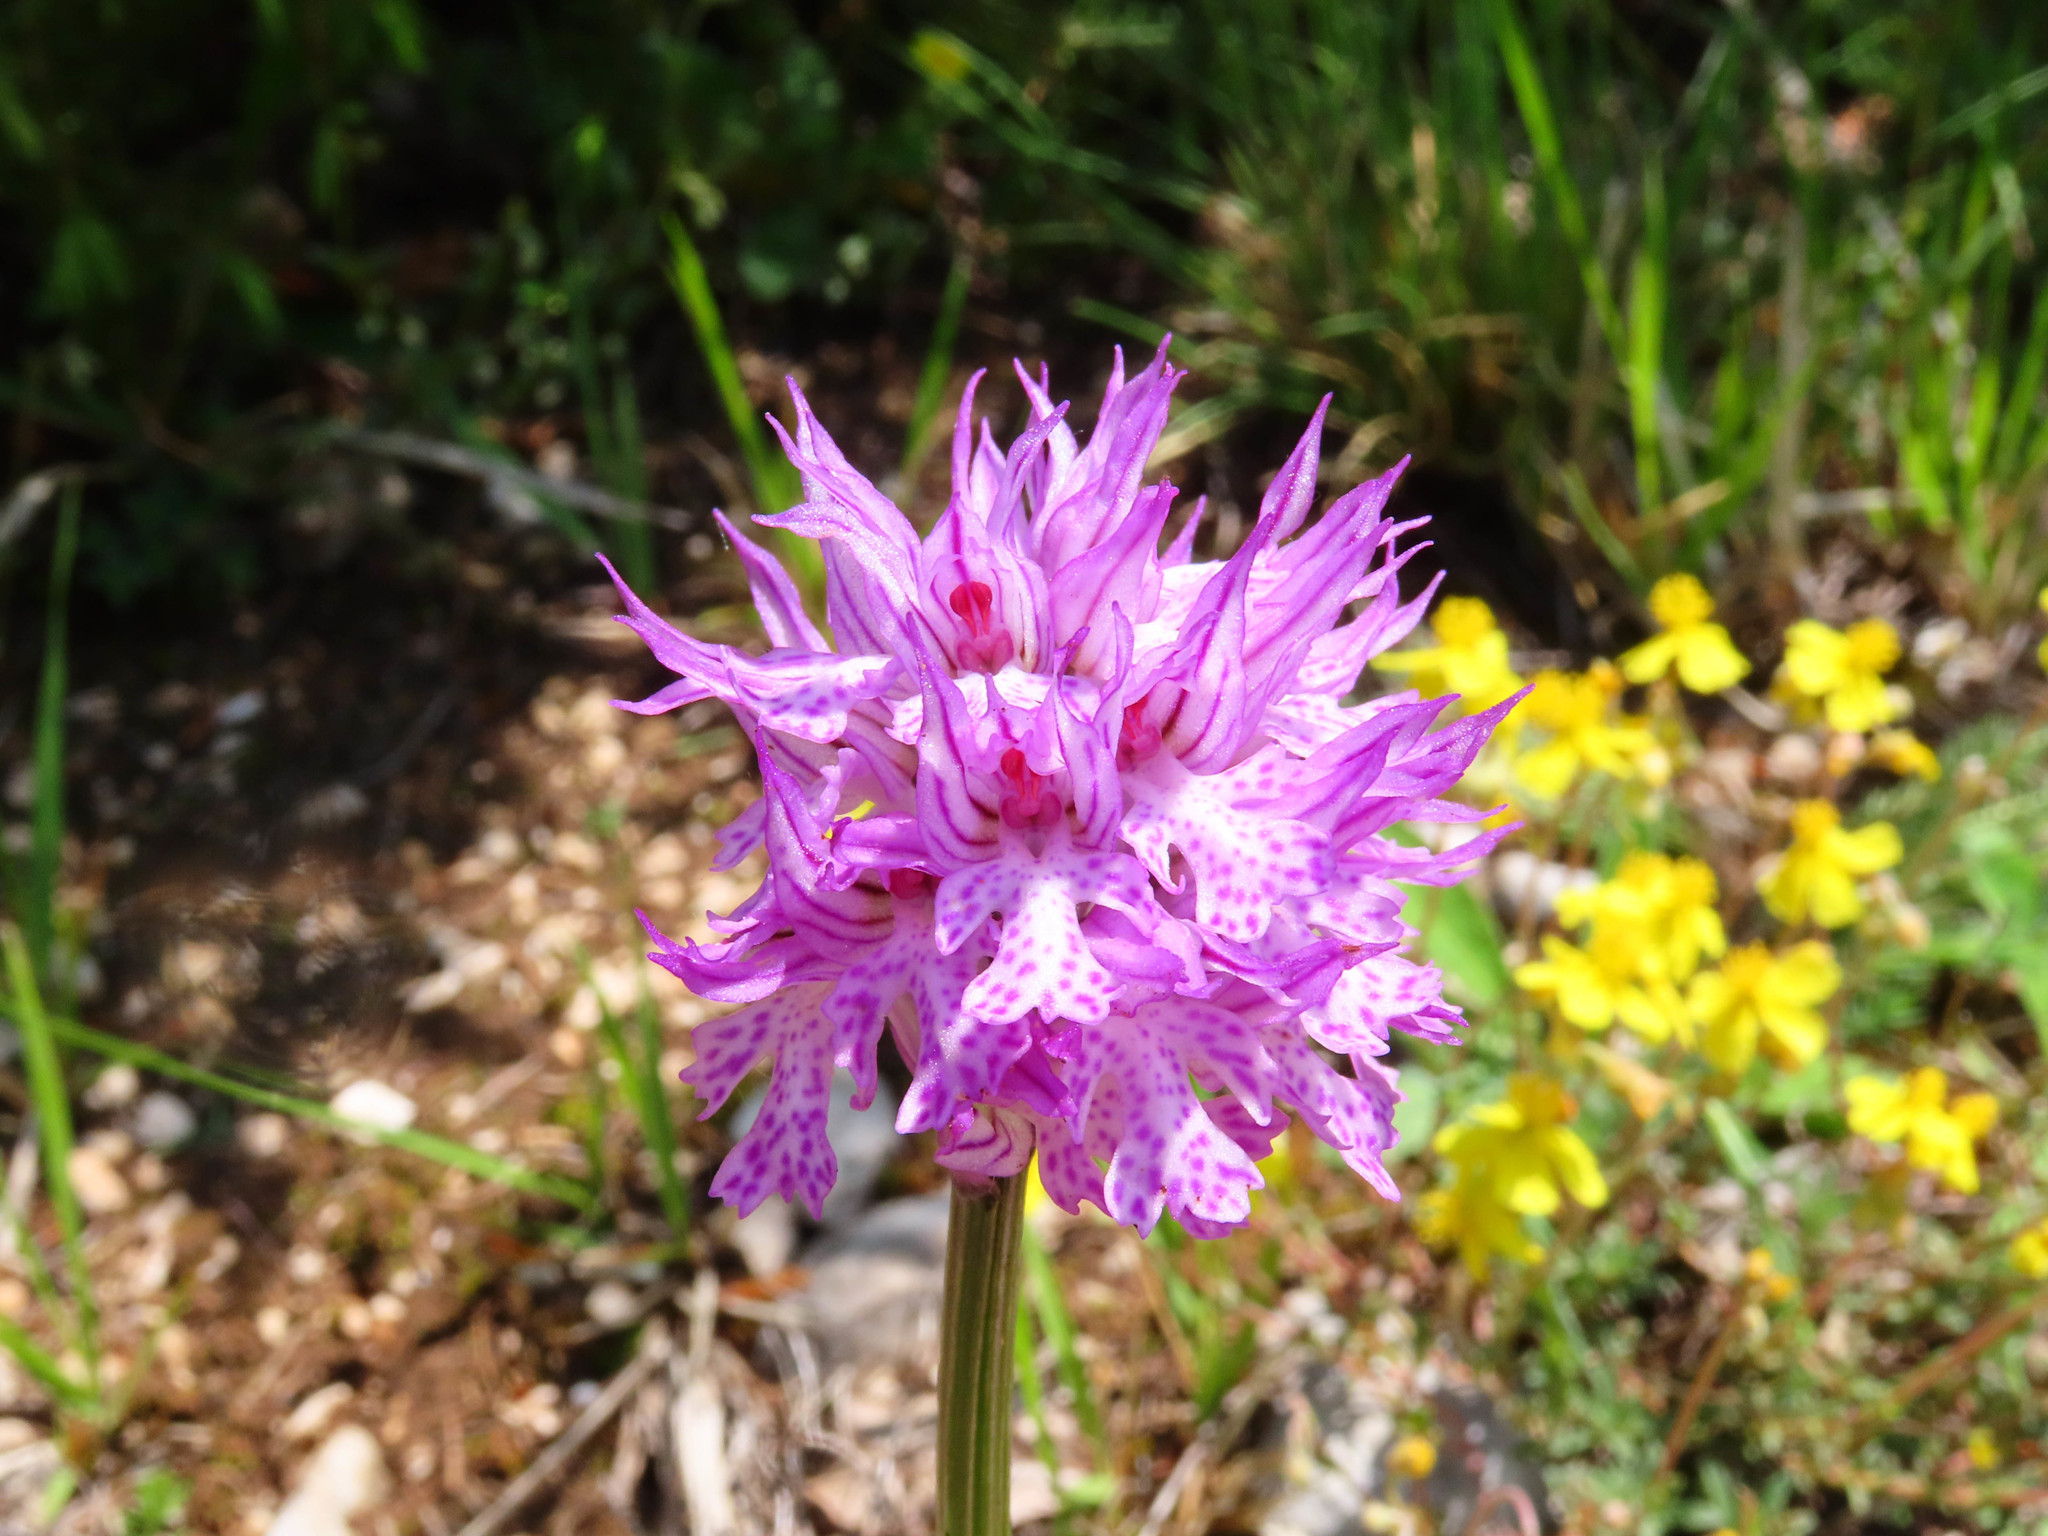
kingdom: Plantae
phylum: Tracheophyta
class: Liliopsida
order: Asparagales
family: Orchidaceae
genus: Neotinea
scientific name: Neotinea tridentata
